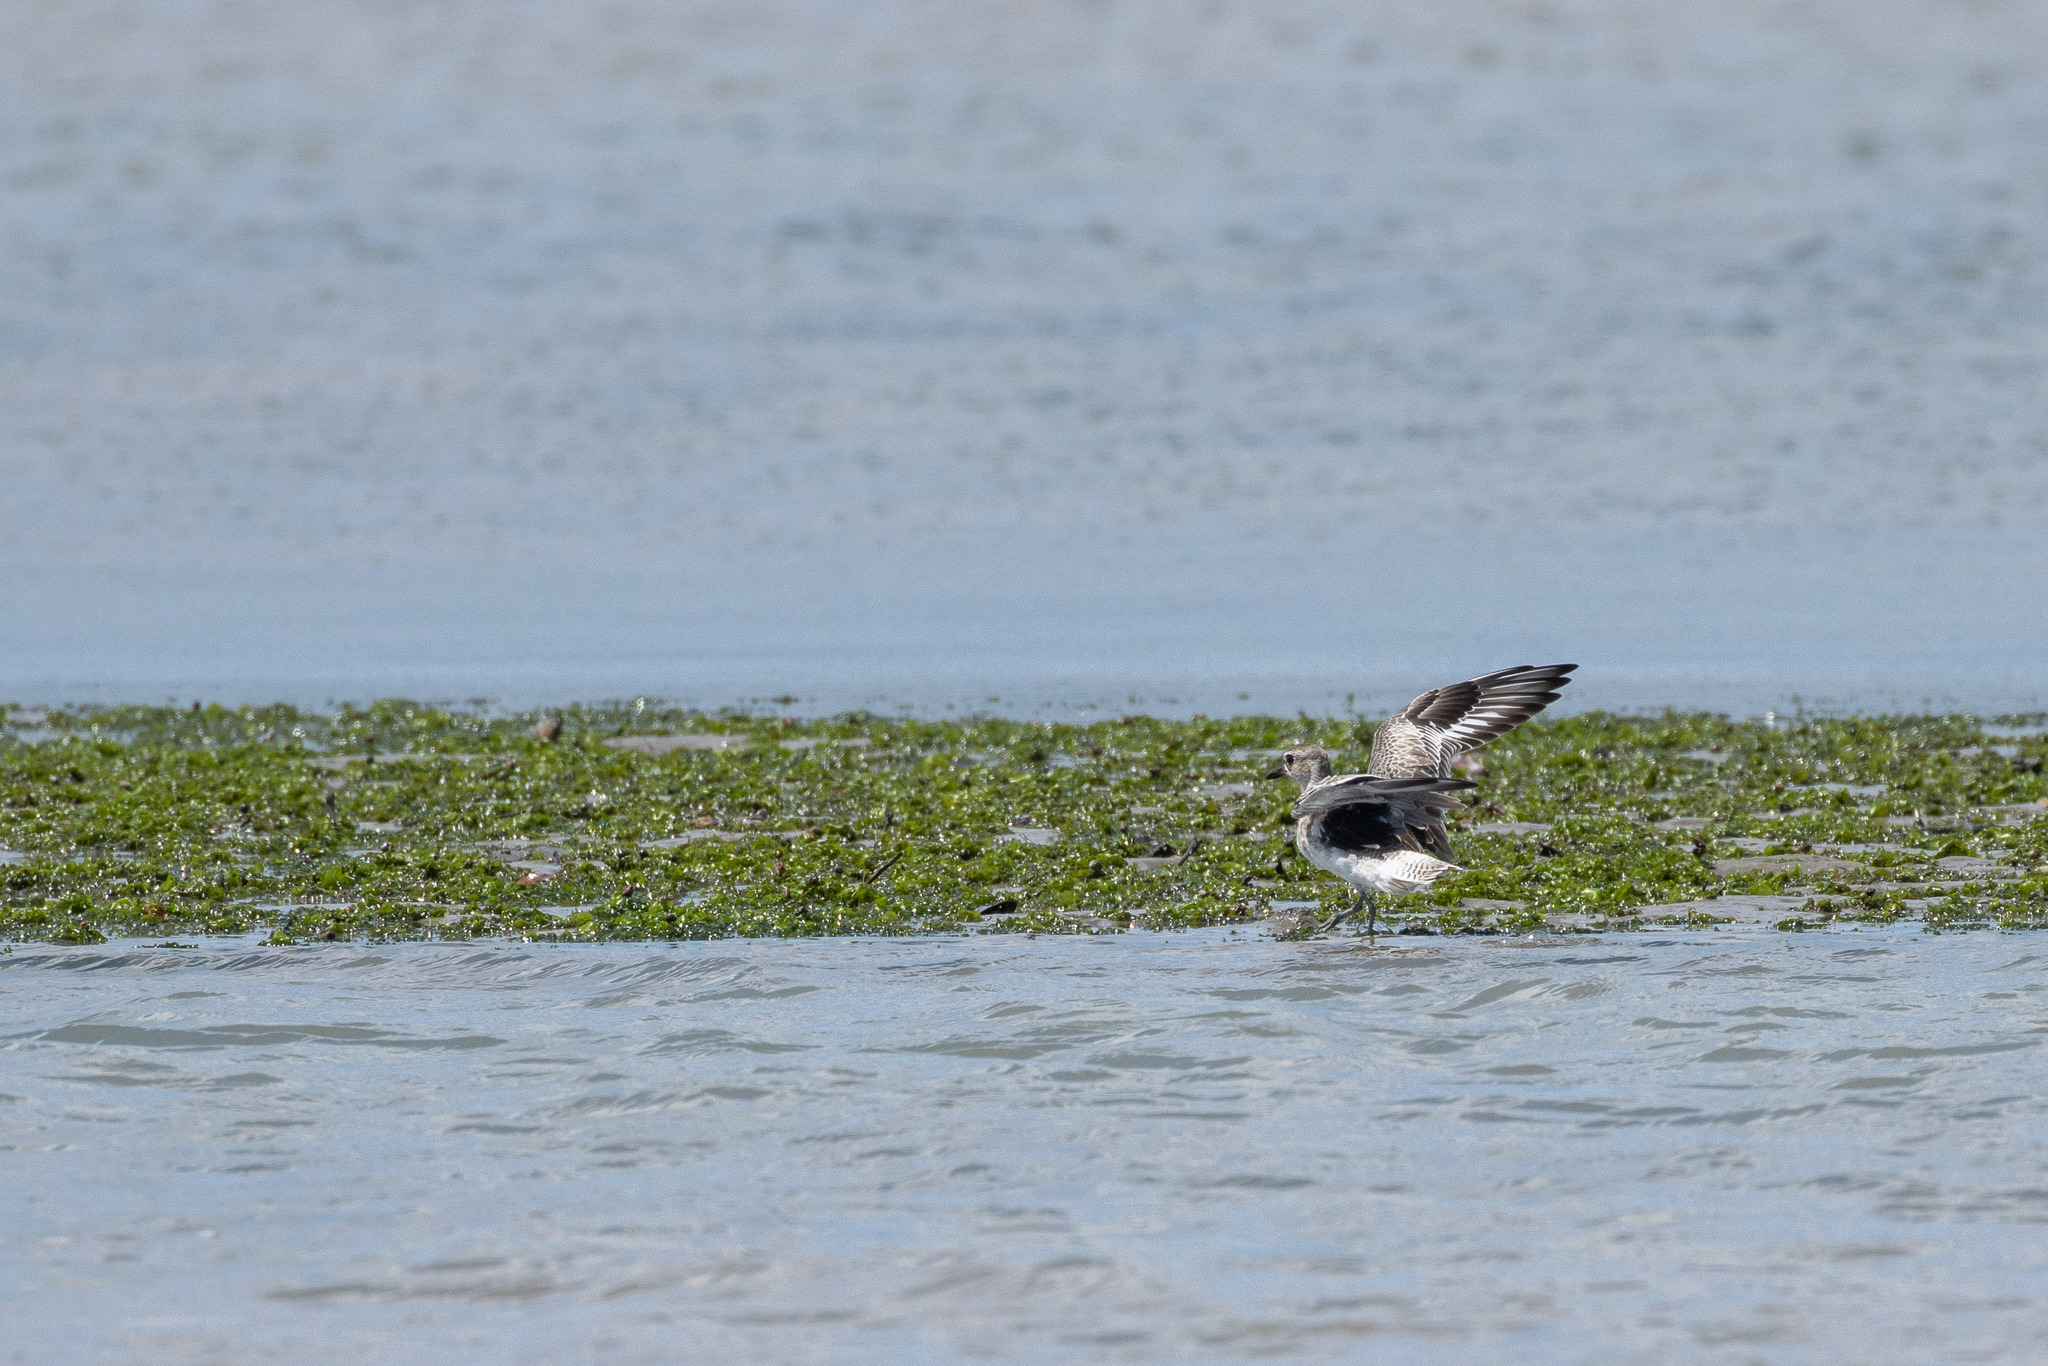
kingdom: Animalia
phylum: Chordata
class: Aves
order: Charadriiformes
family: Charadriidae
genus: Pluvialis
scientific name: Pluvialis squatarola
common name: Grey plover
